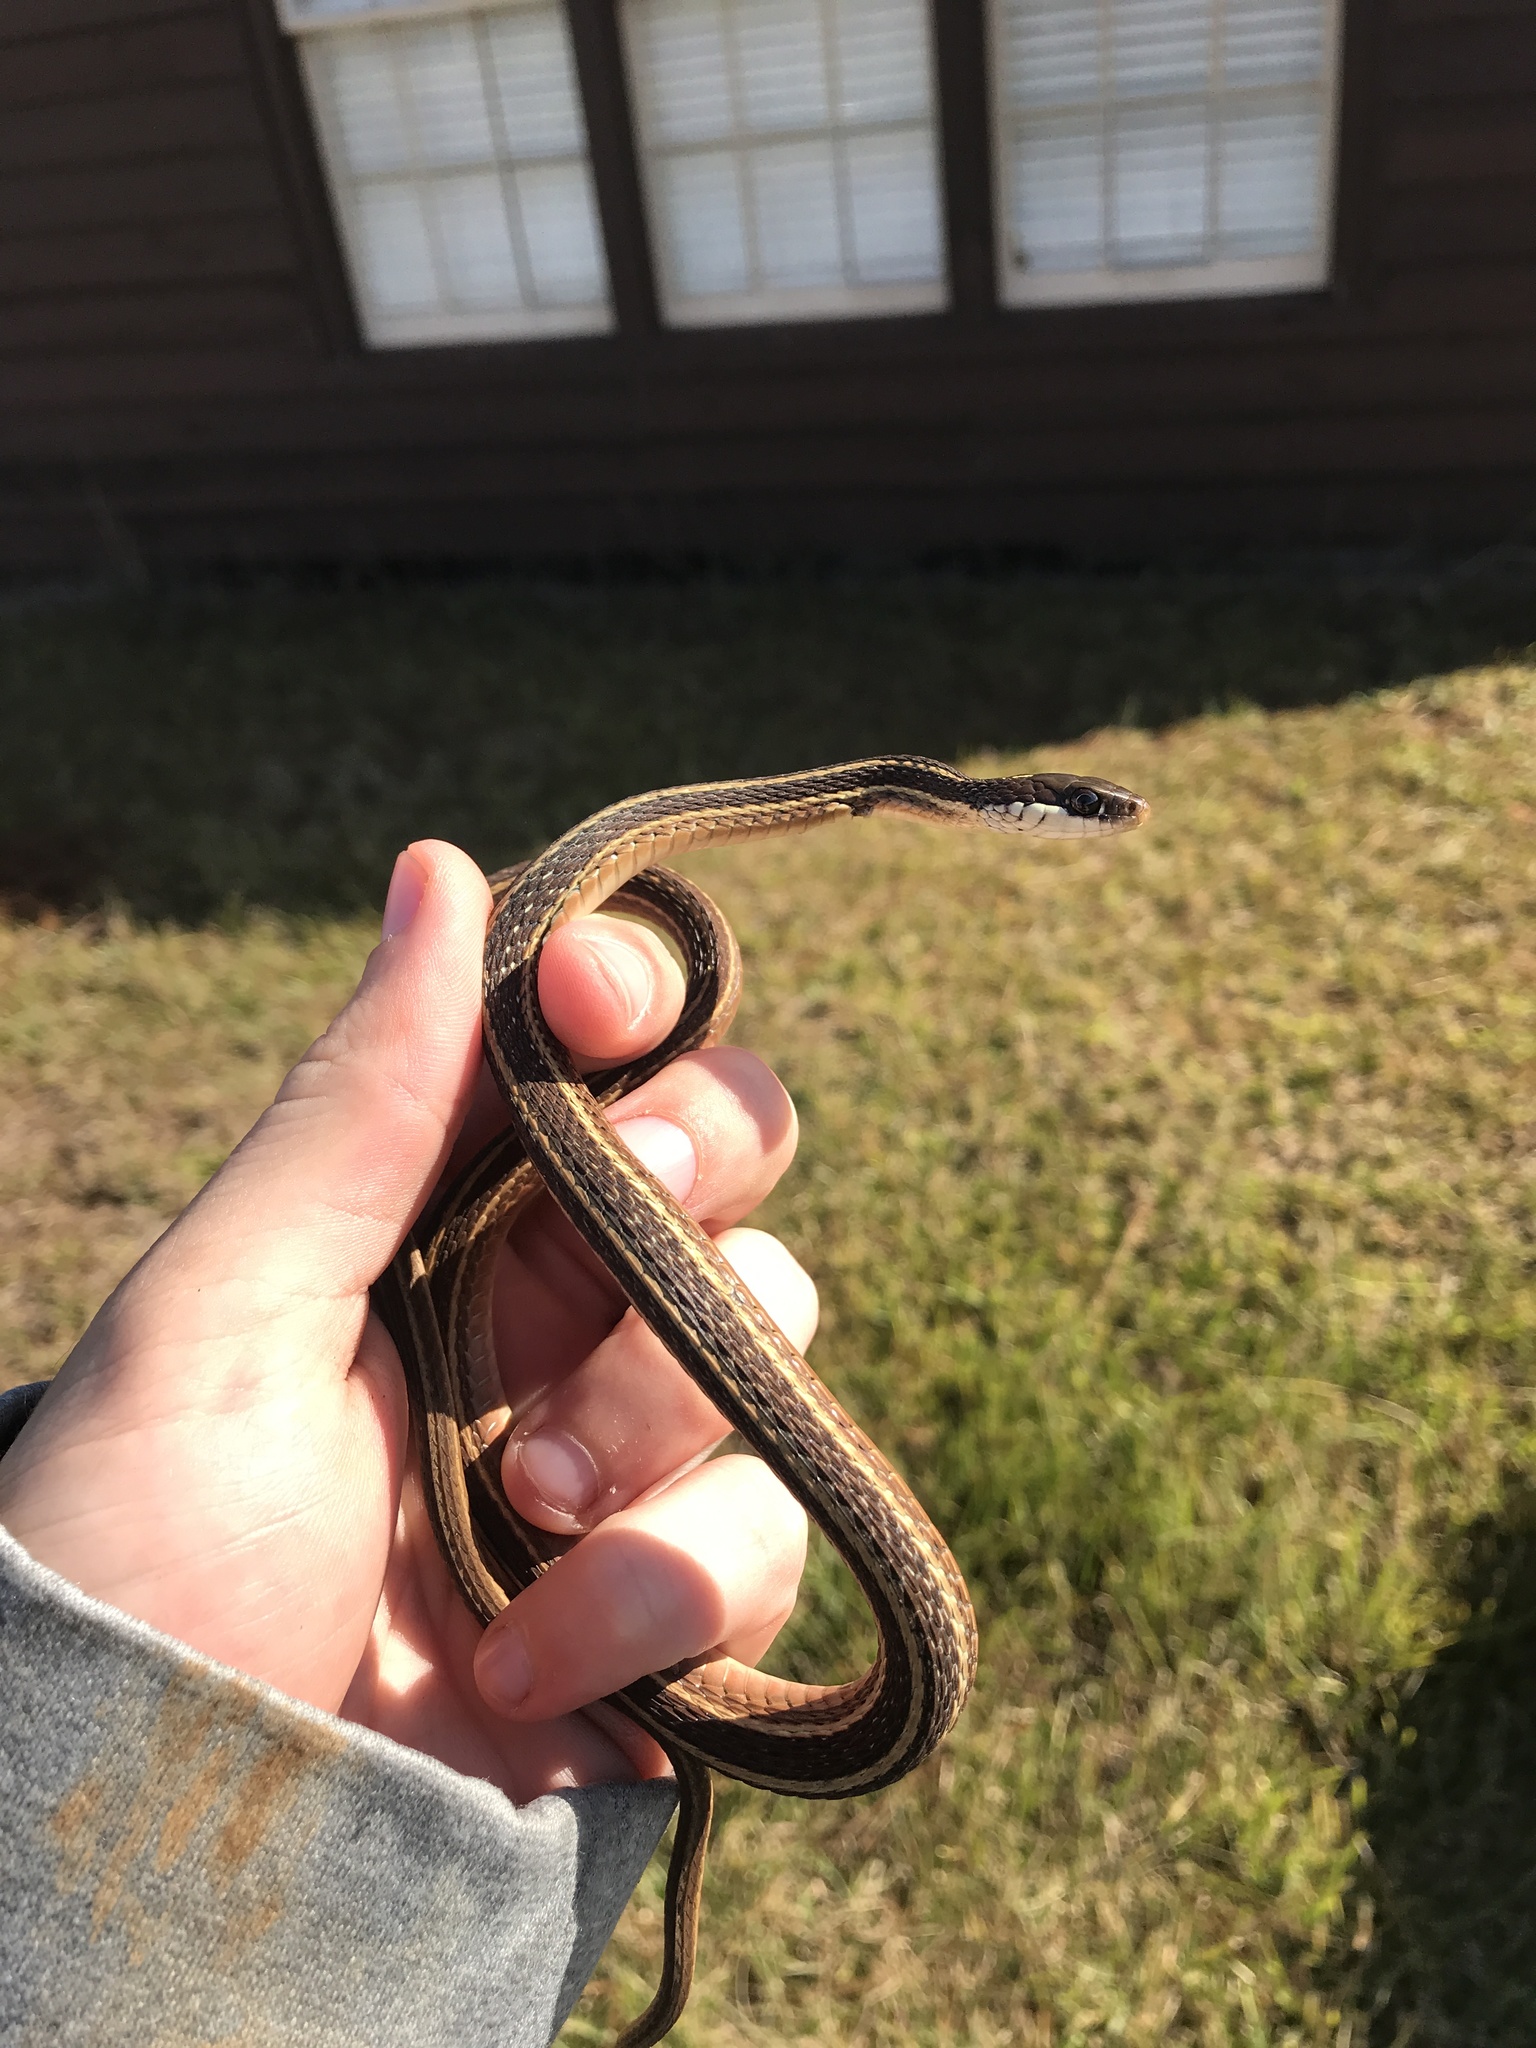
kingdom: Animalia
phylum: Chordata
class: Squamata
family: Colubridae
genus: Thamnophis
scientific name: Thamnophis saurita
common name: Eastern ribbonsnake
